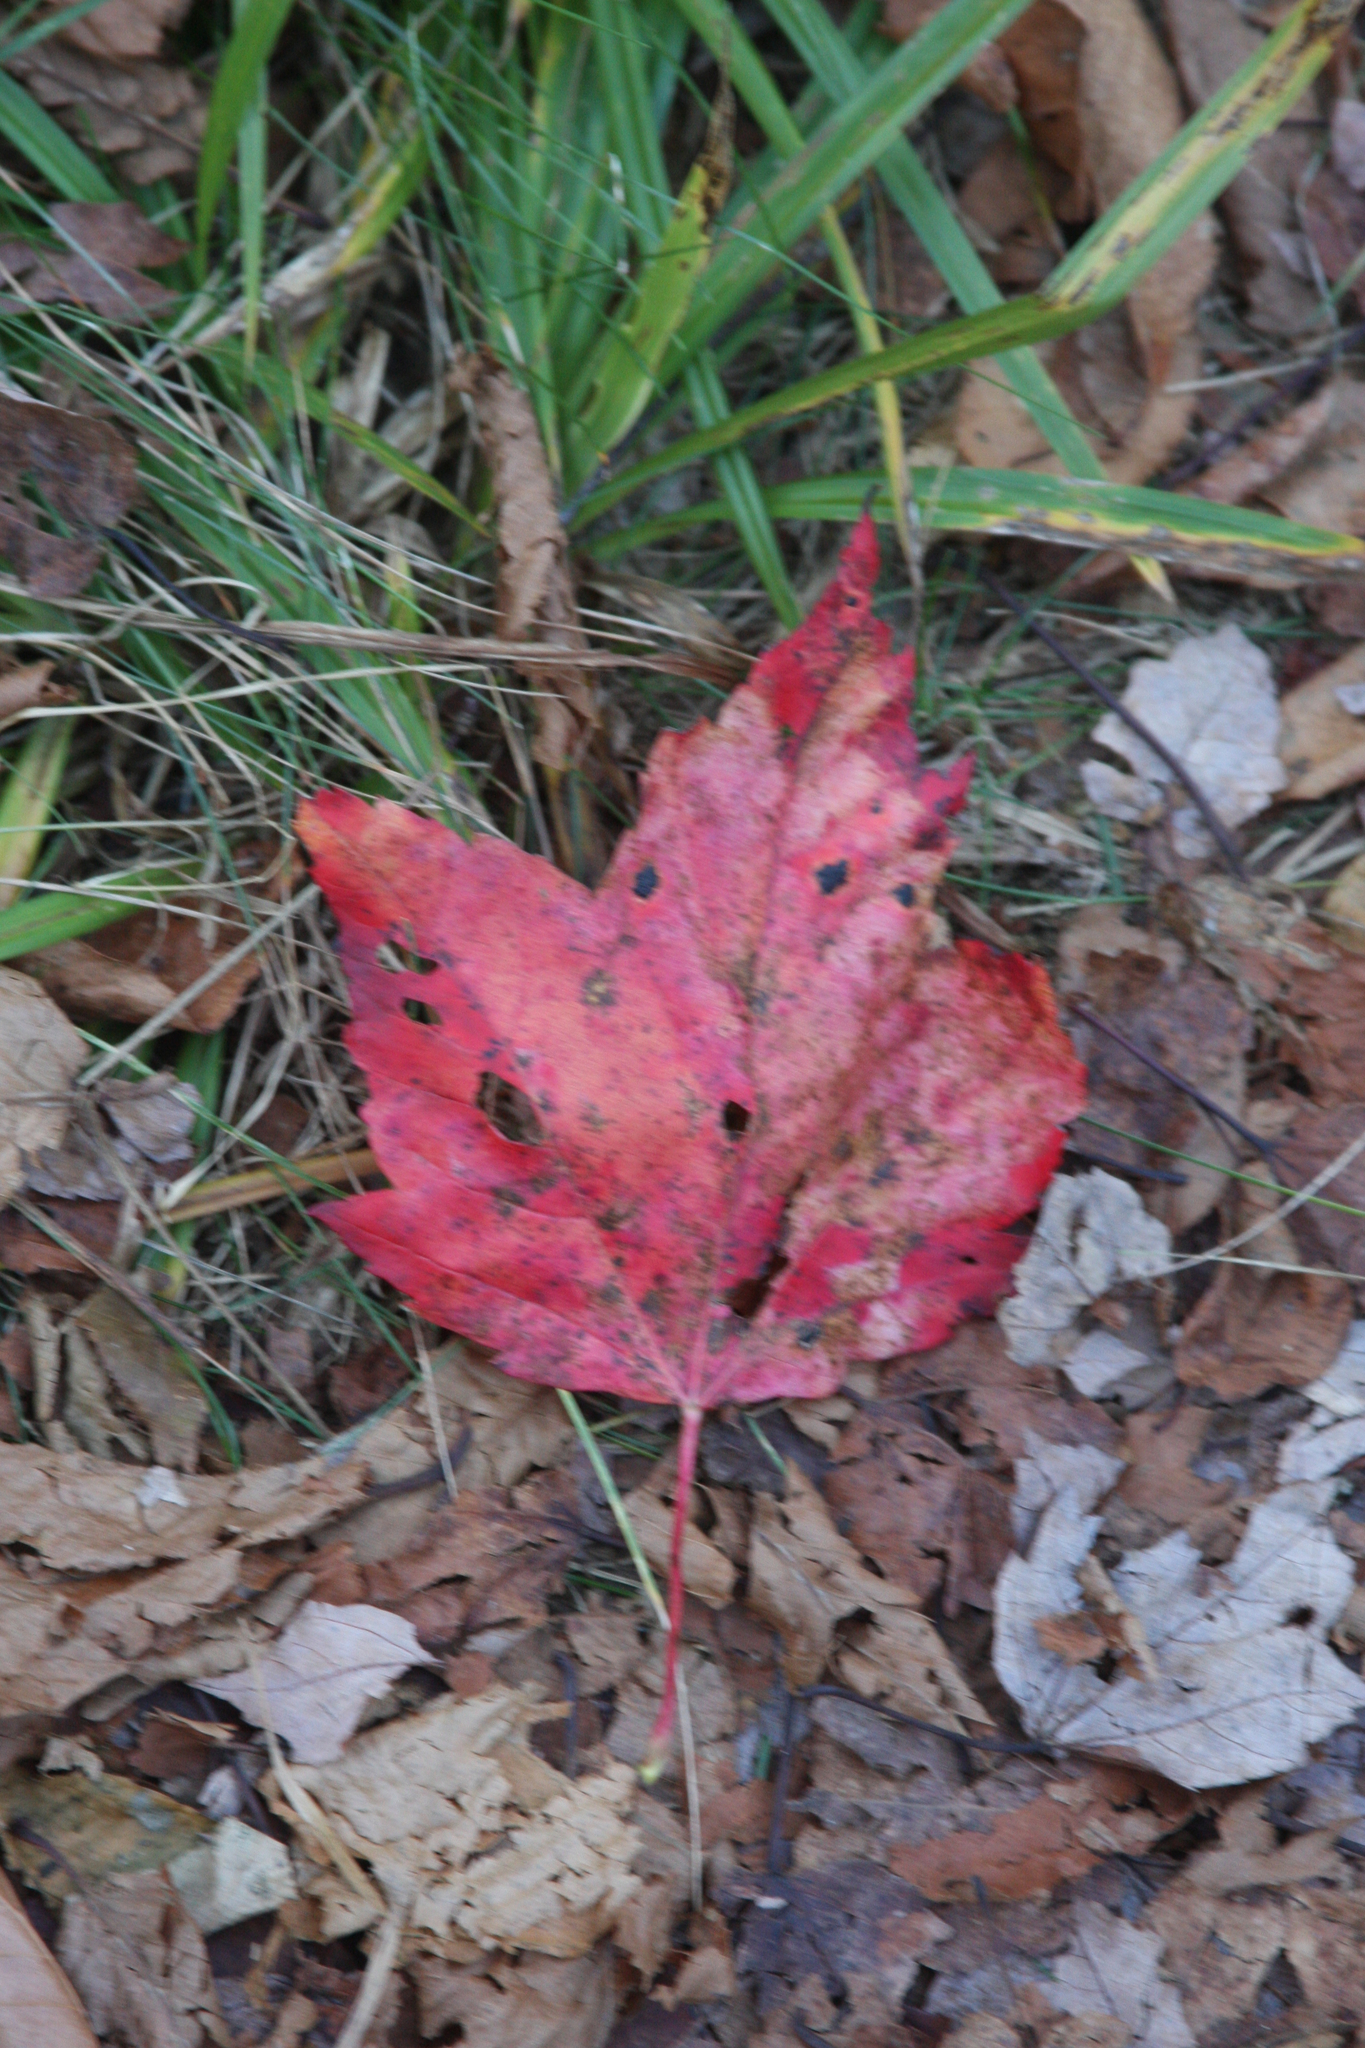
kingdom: Plantae
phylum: Tracheophyta
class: Magnoliopsida
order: Sapindales
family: Sapindaceae
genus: Acer
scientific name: Acer rubrum
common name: Red maple
